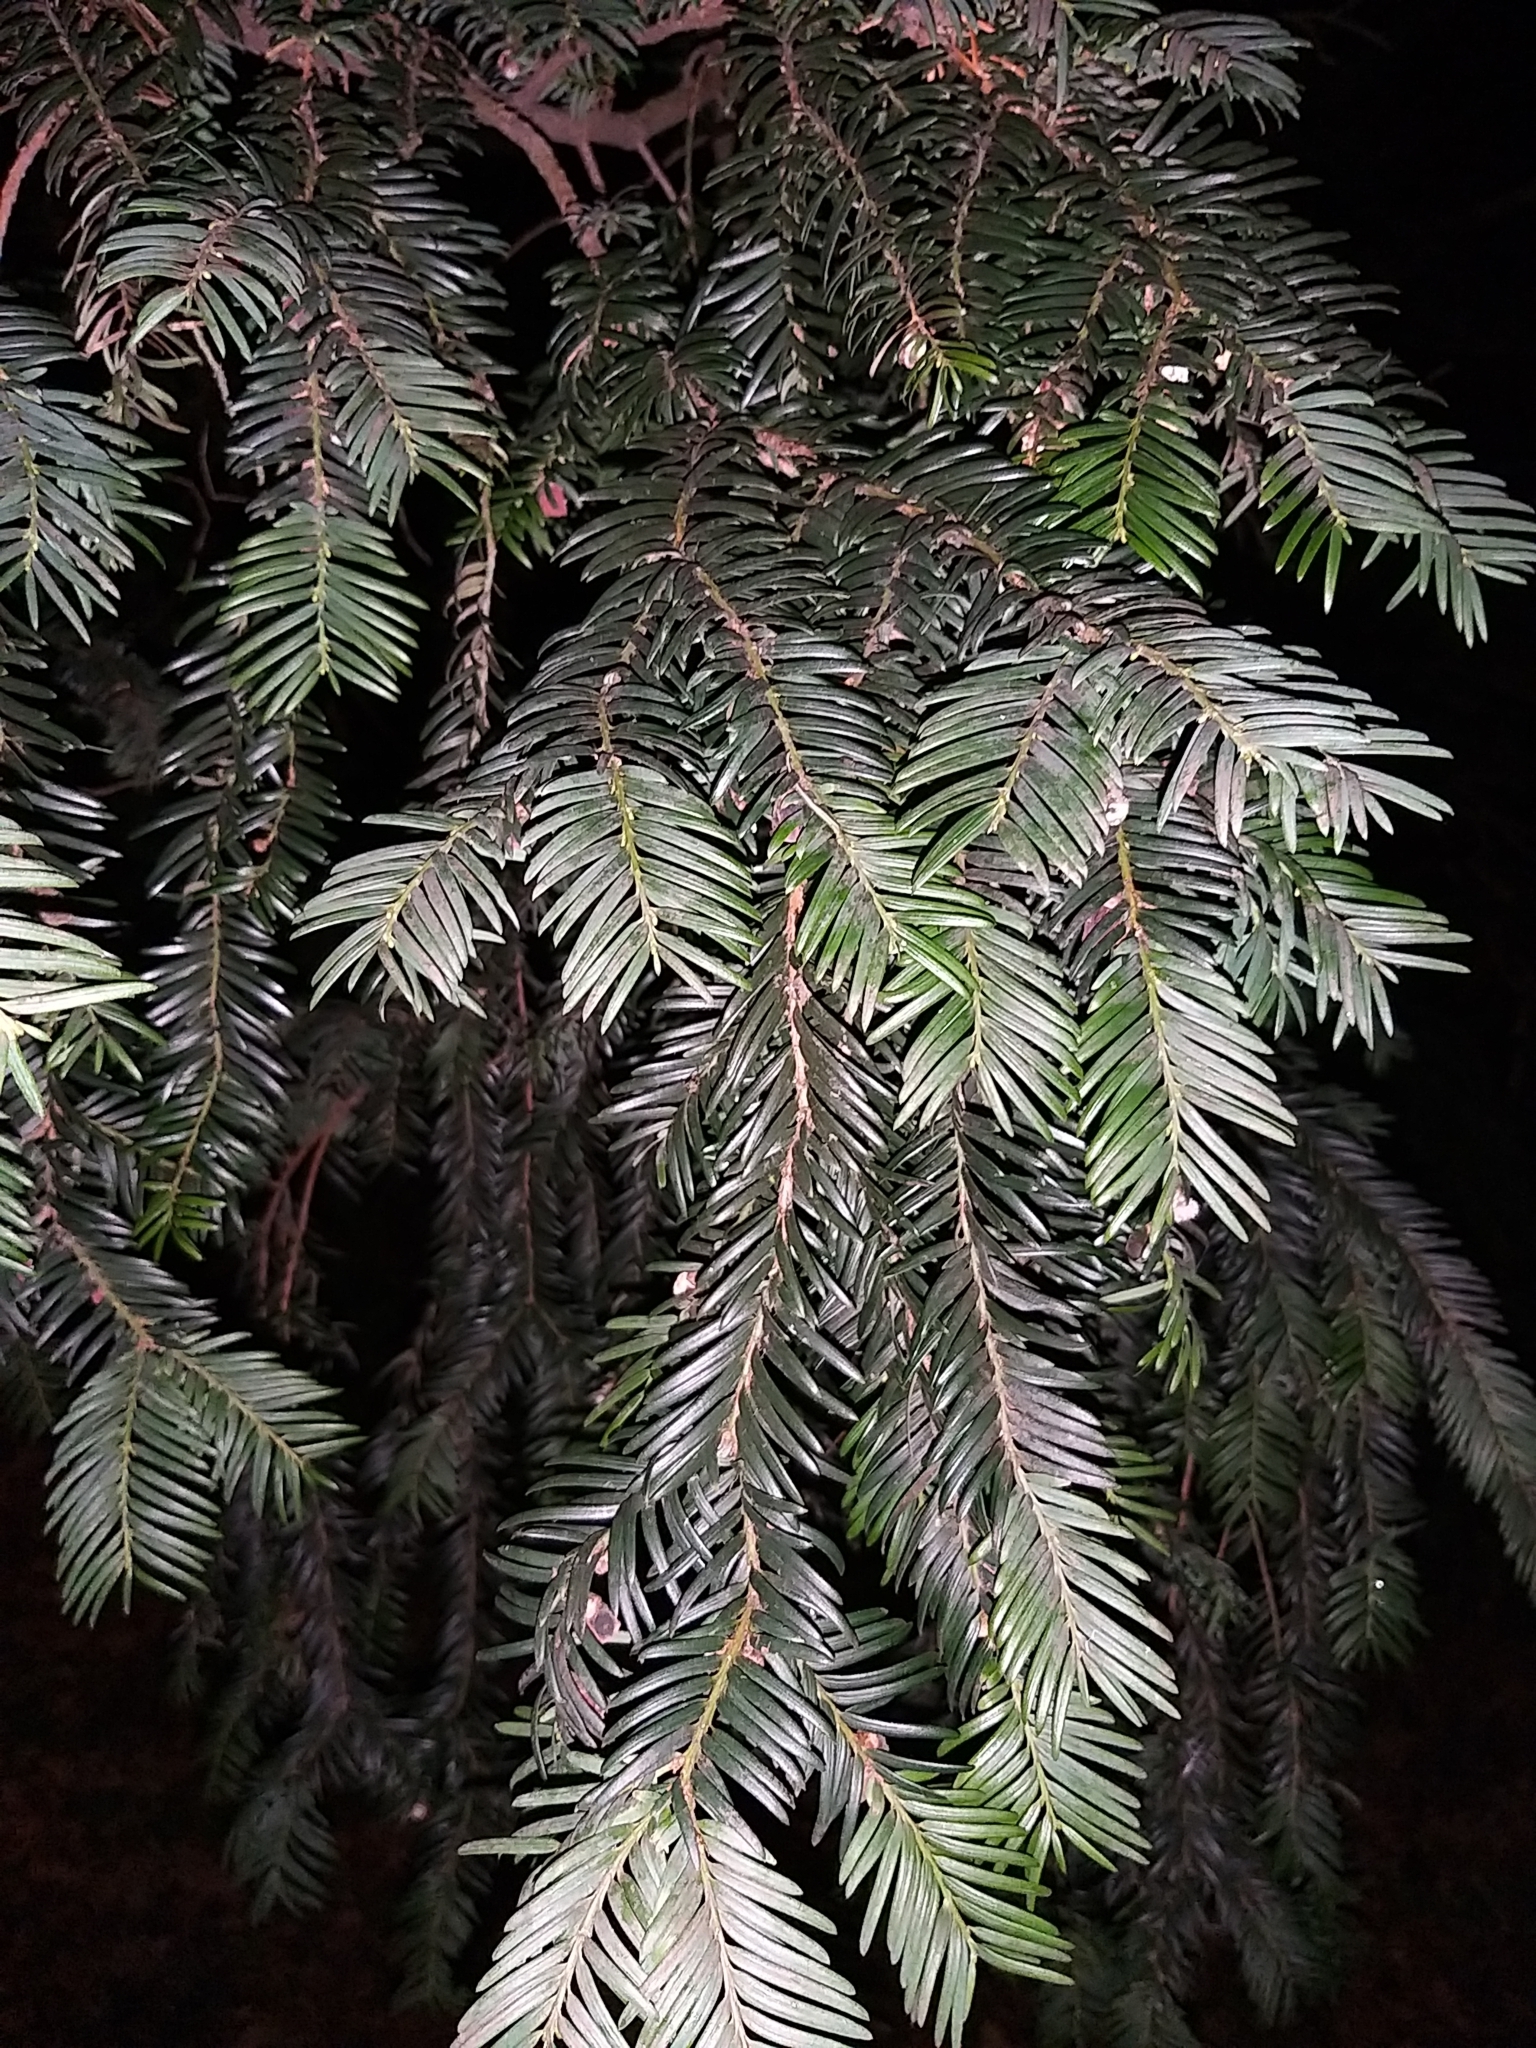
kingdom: Plantae
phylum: Tracheophyta
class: Pinopsida
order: Pinales
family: Taxaceae
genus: Taxus
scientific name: Taxus baccata
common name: Yew
